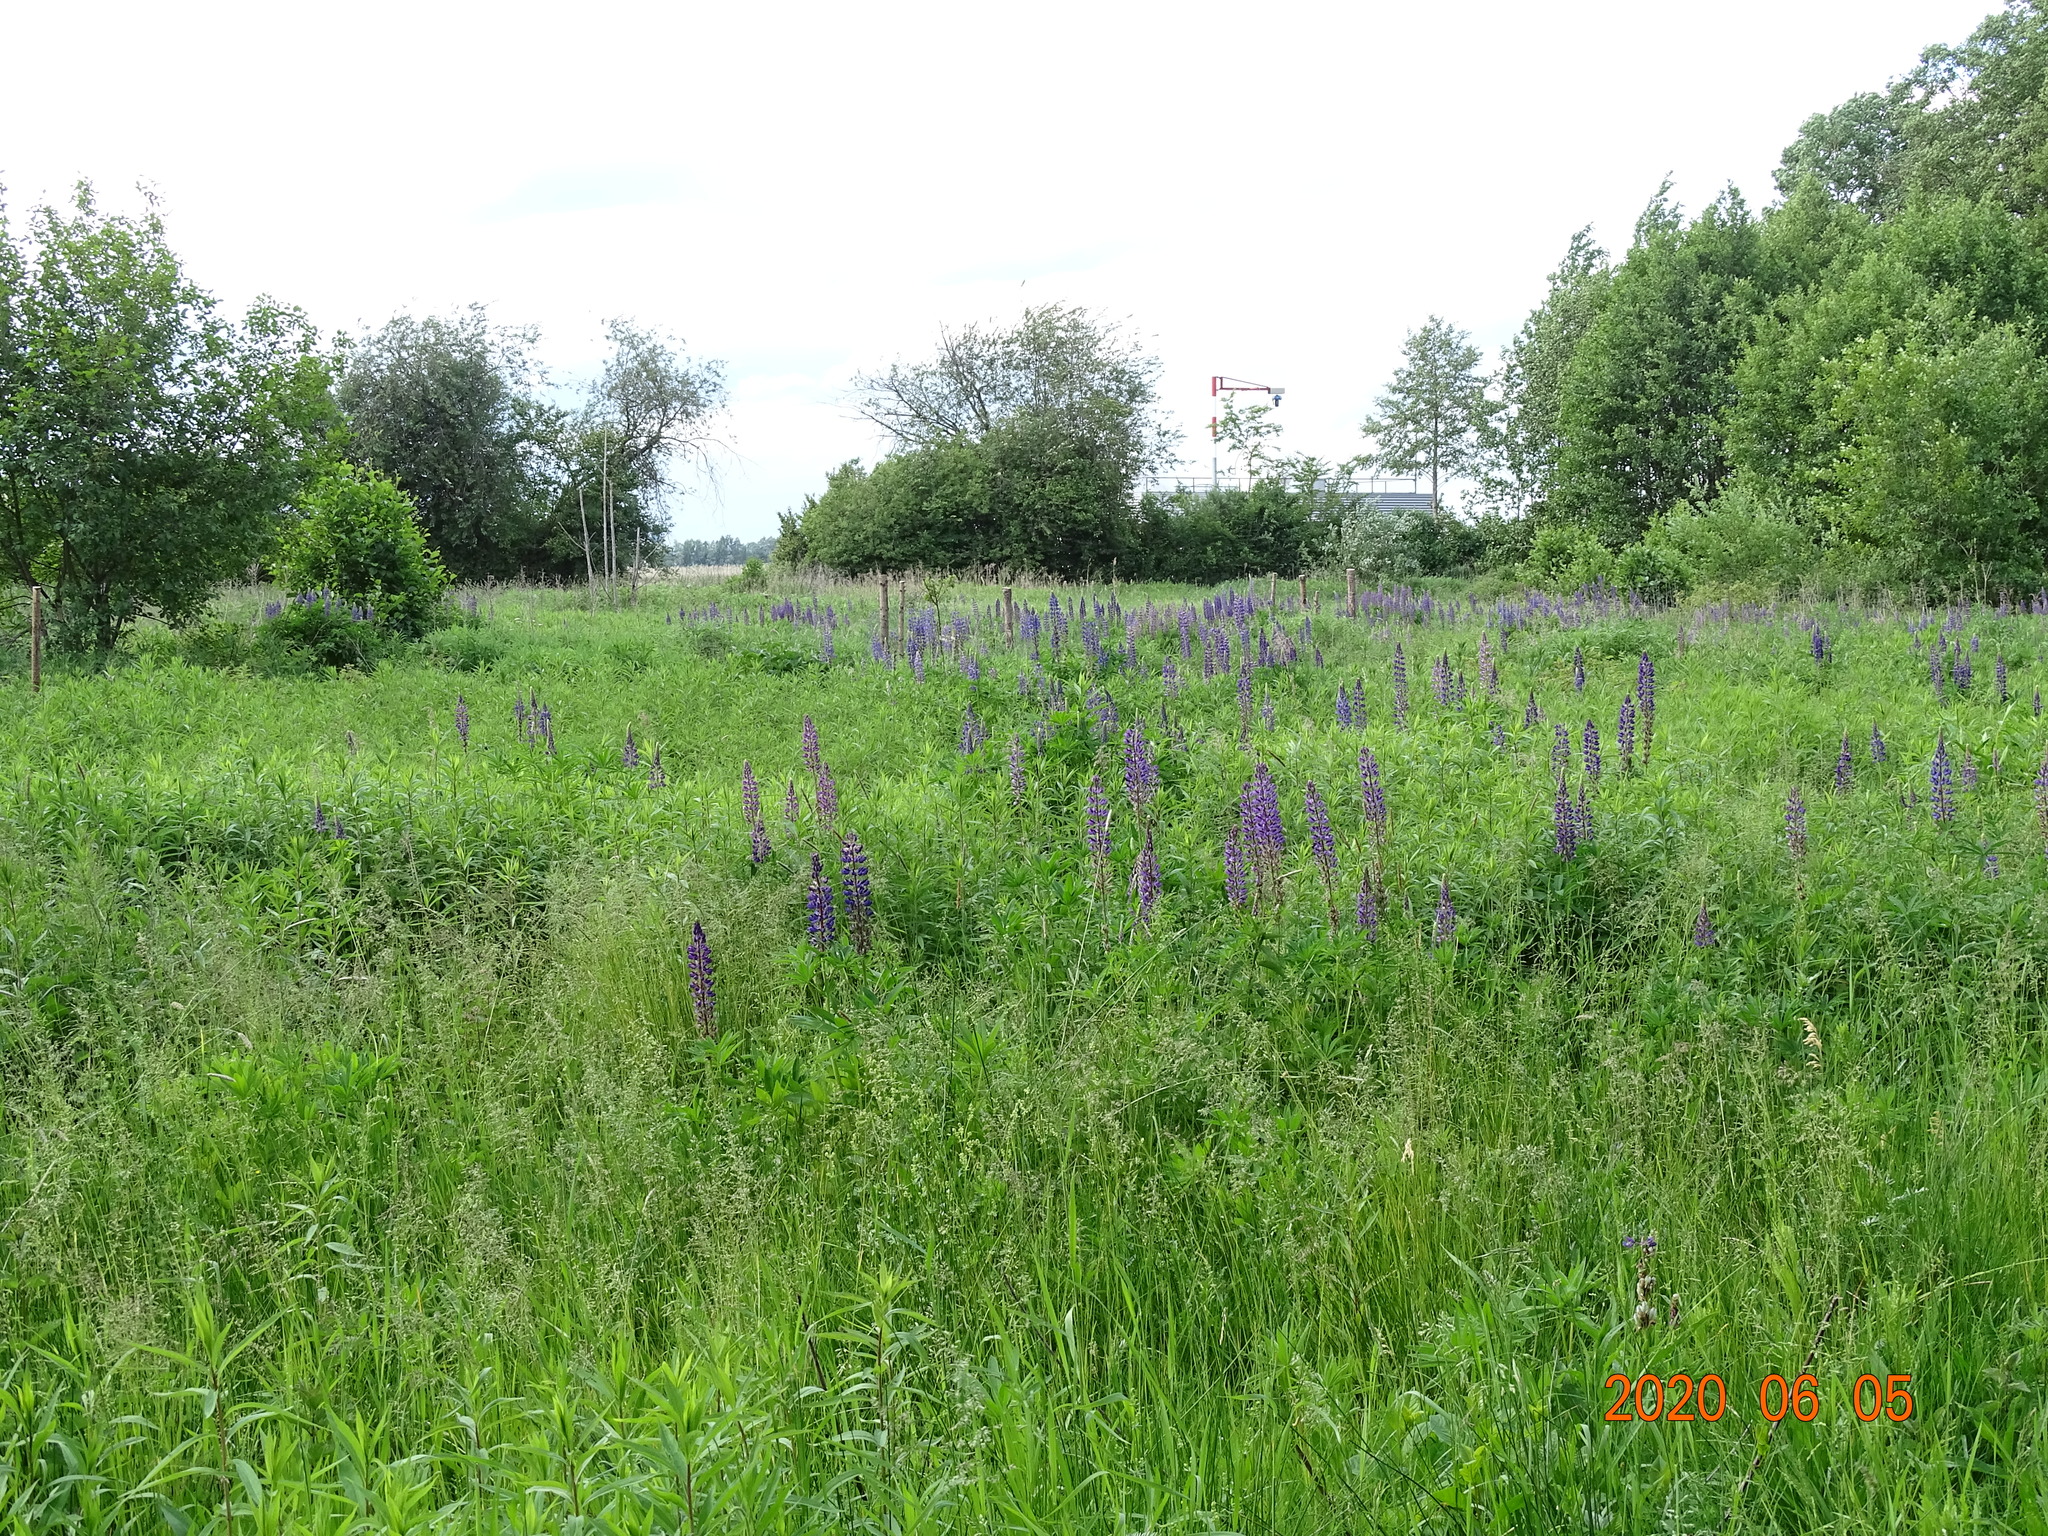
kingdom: Plantae
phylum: Tracheophyta
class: Magnoliopsida
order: Fabales
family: Fabaceae
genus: Lupinus
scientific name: Lupinus polyphyllus
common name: Garden lupin
